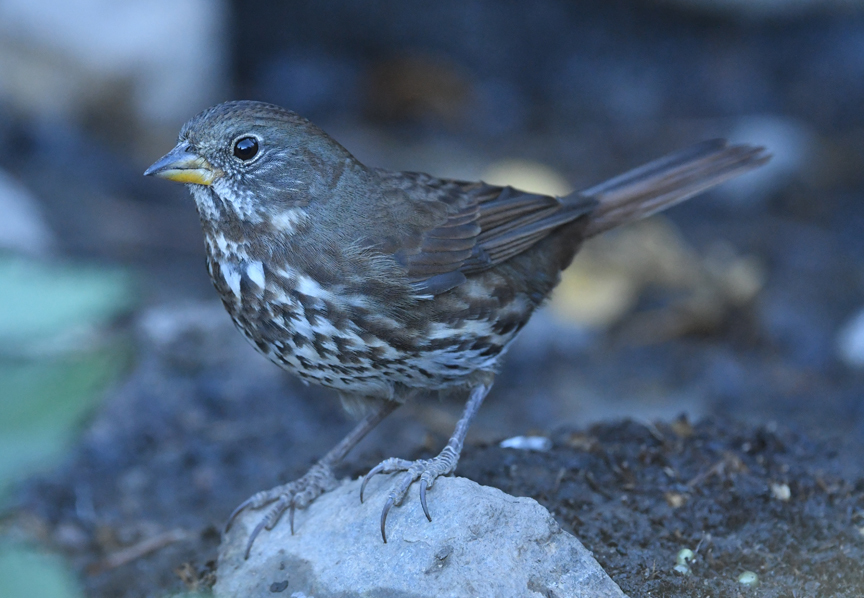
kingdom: Animalia
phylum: Chordata
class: Aves
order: Passeriformes
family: Passerellidae
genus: Passerella
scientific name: Passerella iliaca
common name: Fox sparrow
